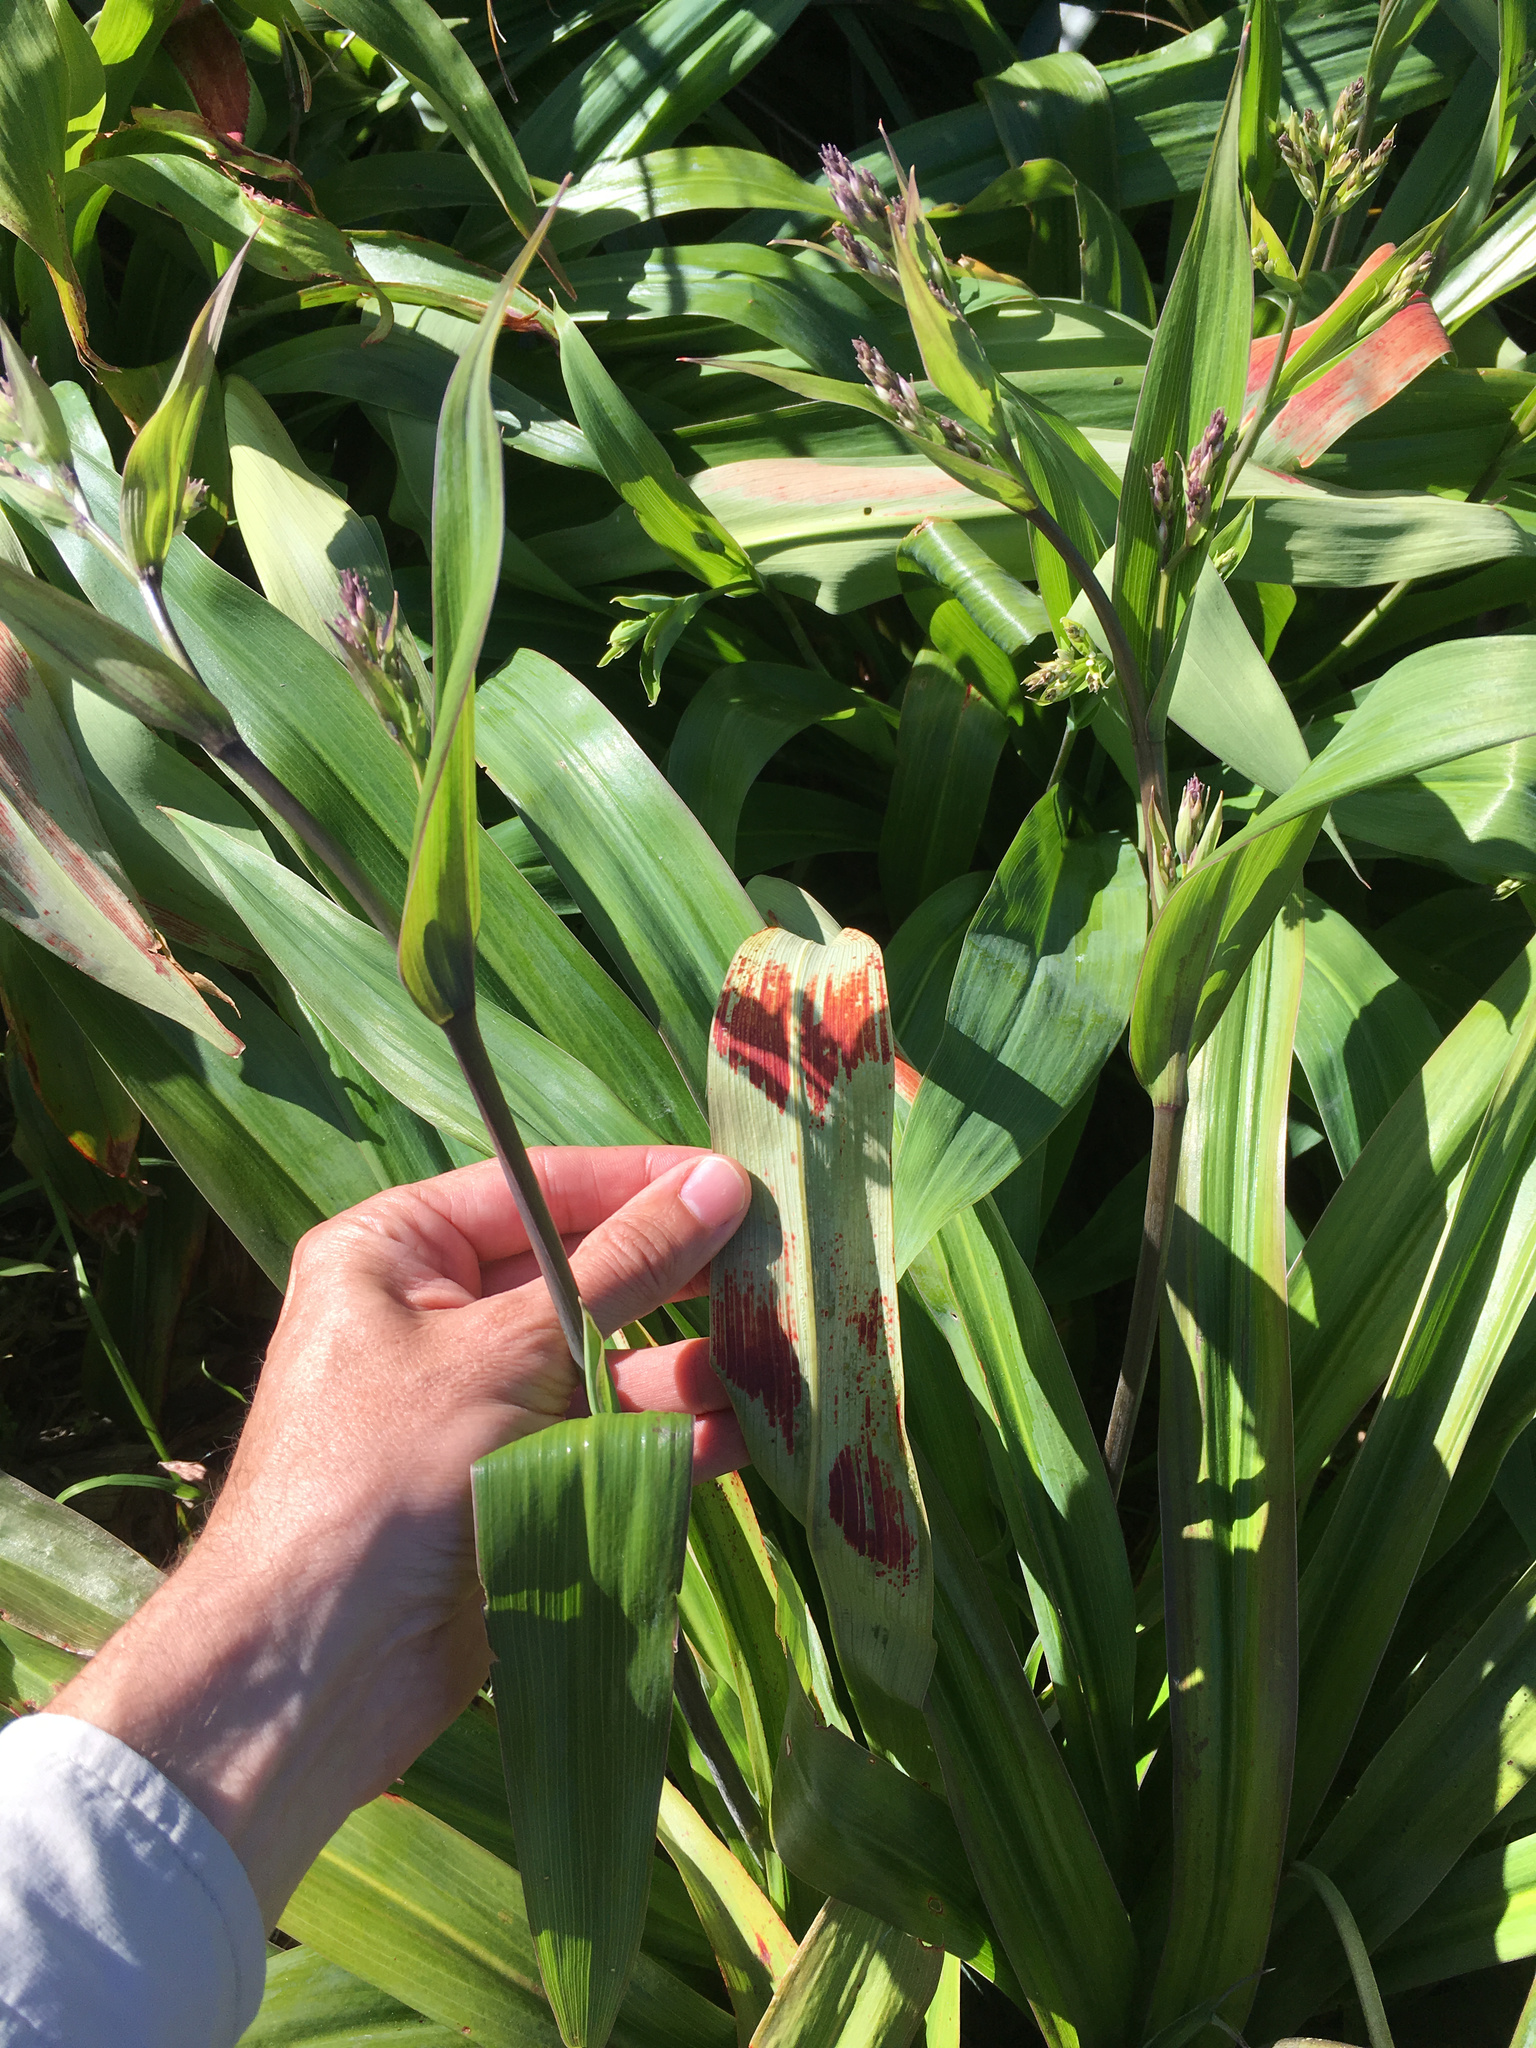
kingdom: Plantae
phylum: Tracheophyta
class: Liliopsida
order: Asparagales
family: Asparagaceae
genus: Arthropodium
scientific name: Arthropodium cirratum
